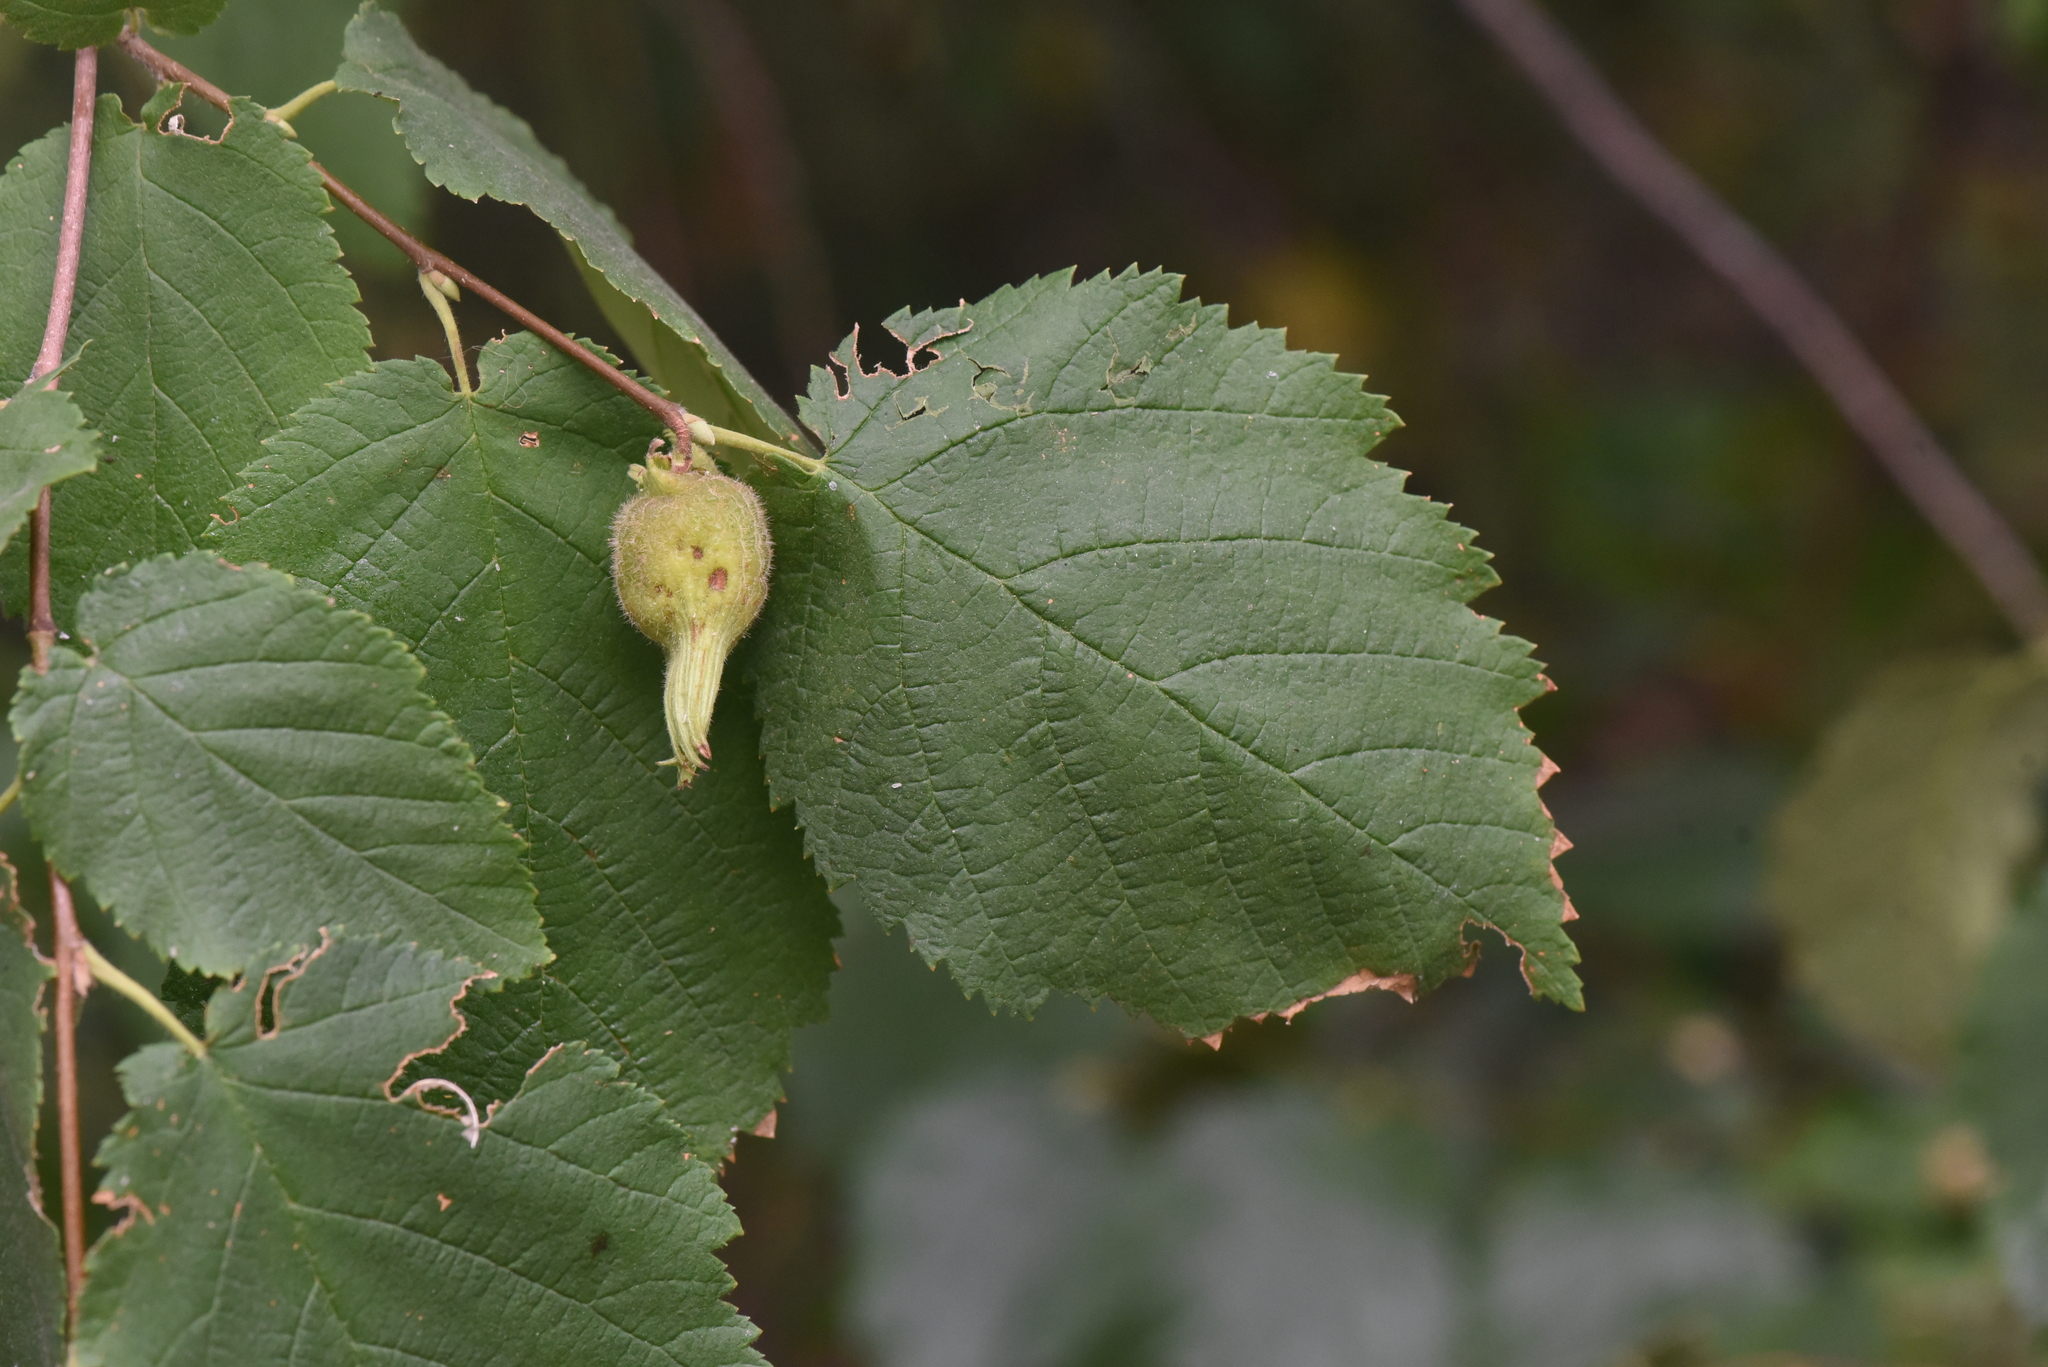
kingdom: Plantae
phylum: Tracheophyta
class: Magnoliopsida
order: Fagales
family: Betulaceae
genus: Corylus
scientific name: Corylus cornuta
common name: Beaked hazel
